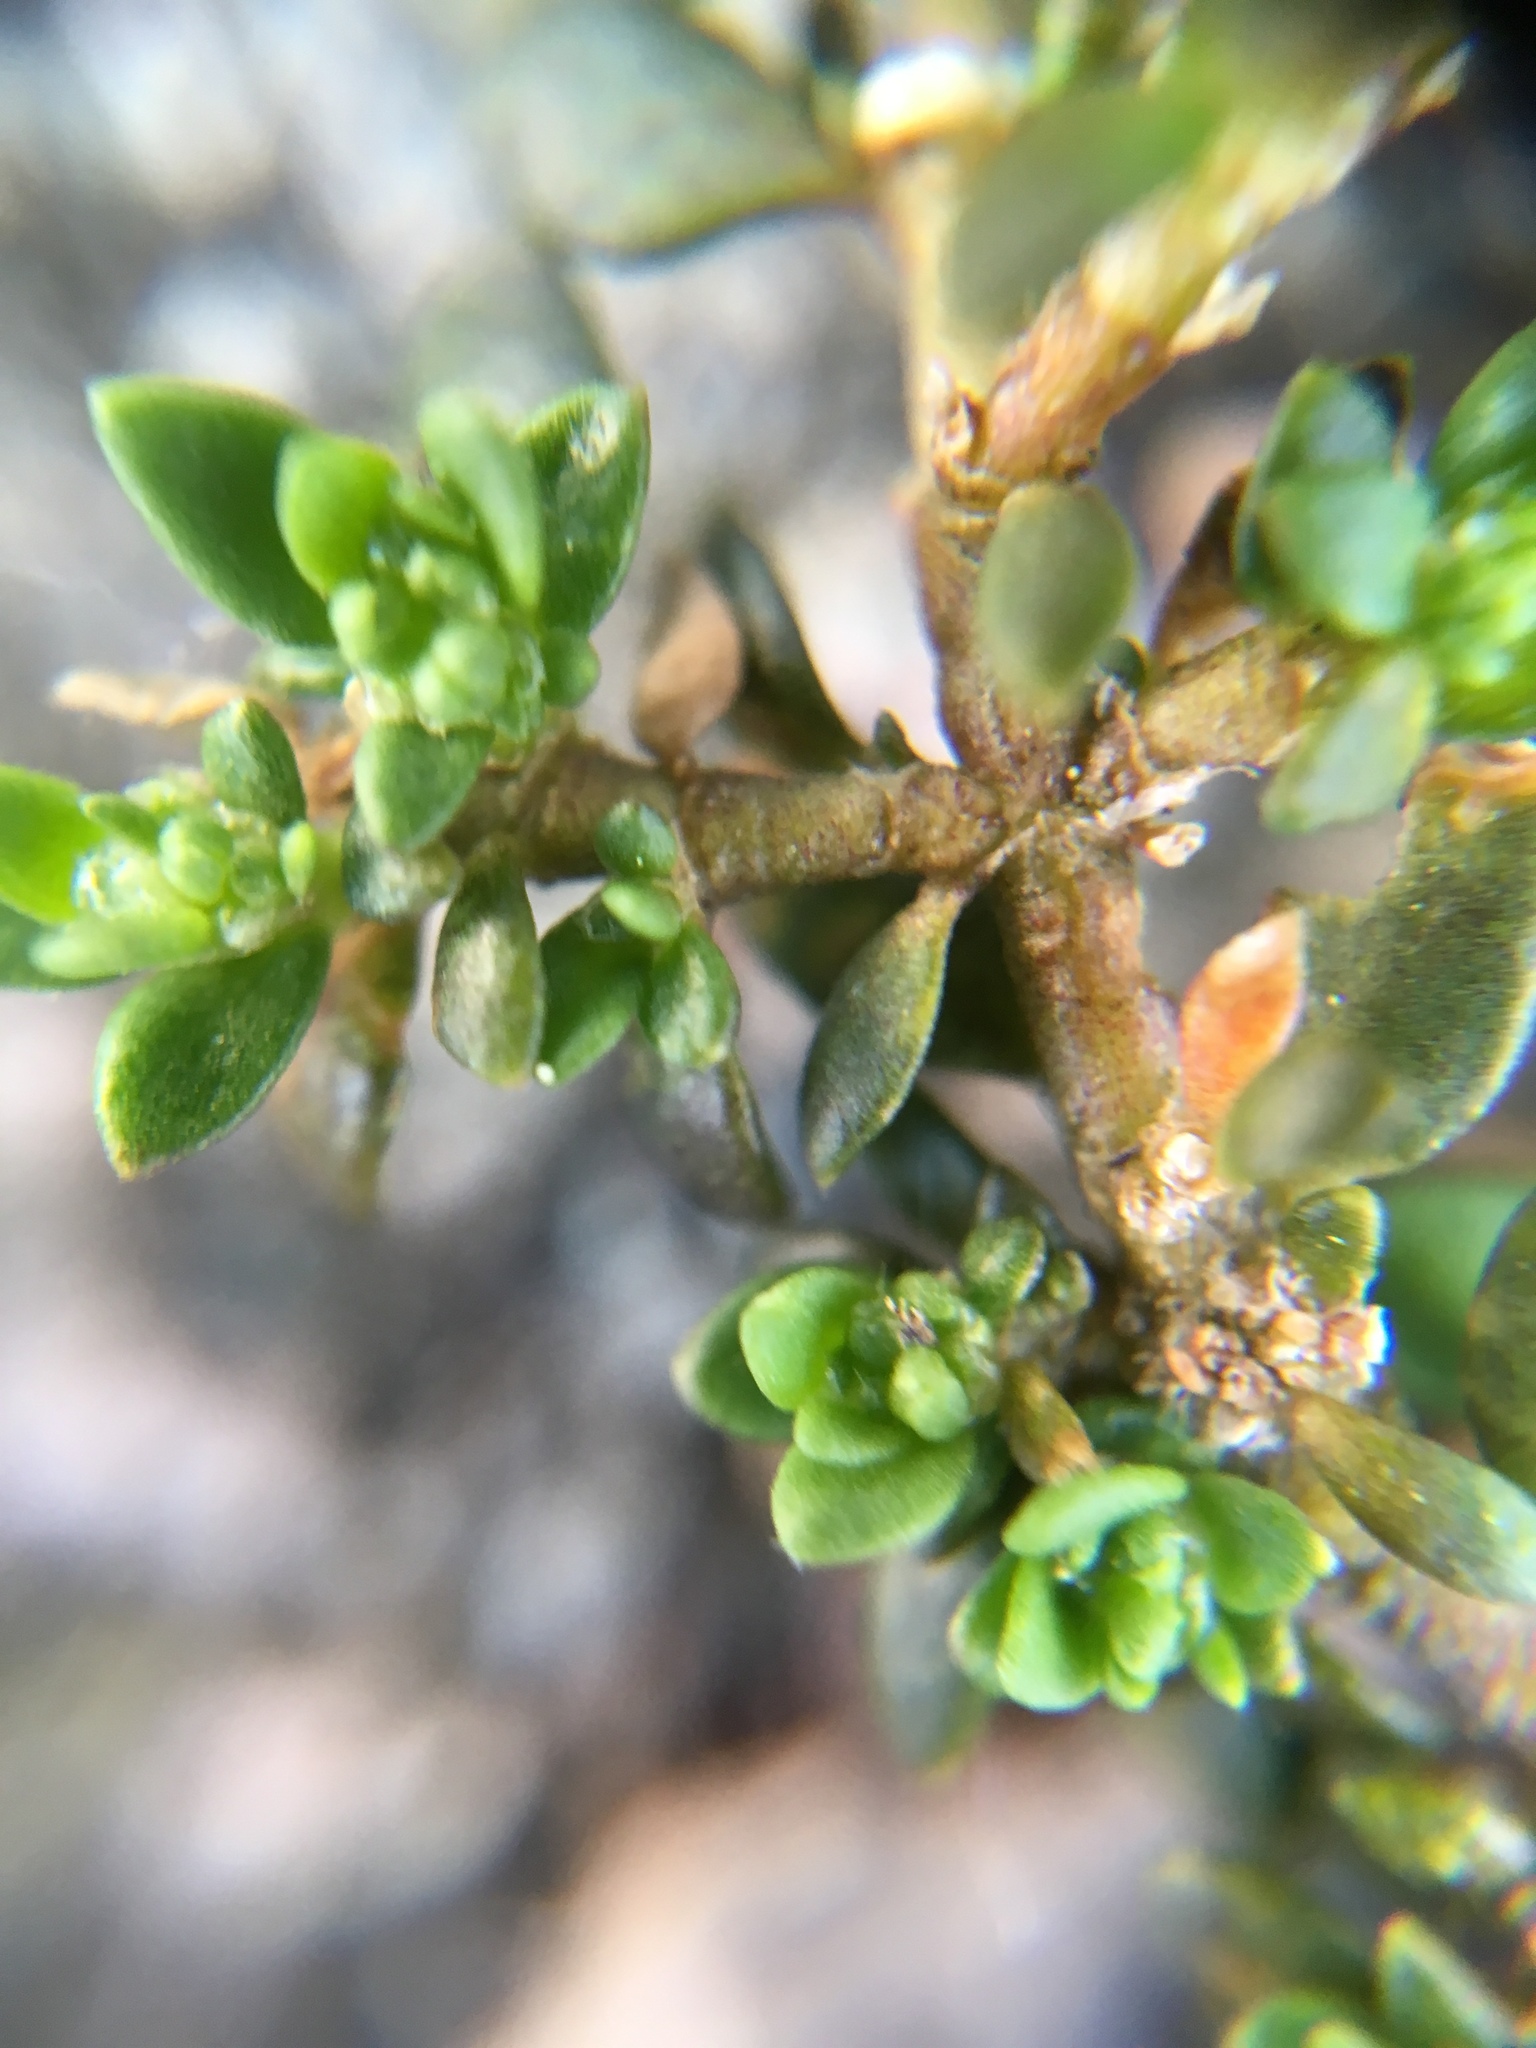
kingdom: Plantae
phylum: Tracheophyta
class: Magnoliopsida
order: Caryophyllales
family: Caryophyllaceae
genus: Herniaria
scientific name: Herniaria glabra
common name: Smooth rupturewort
